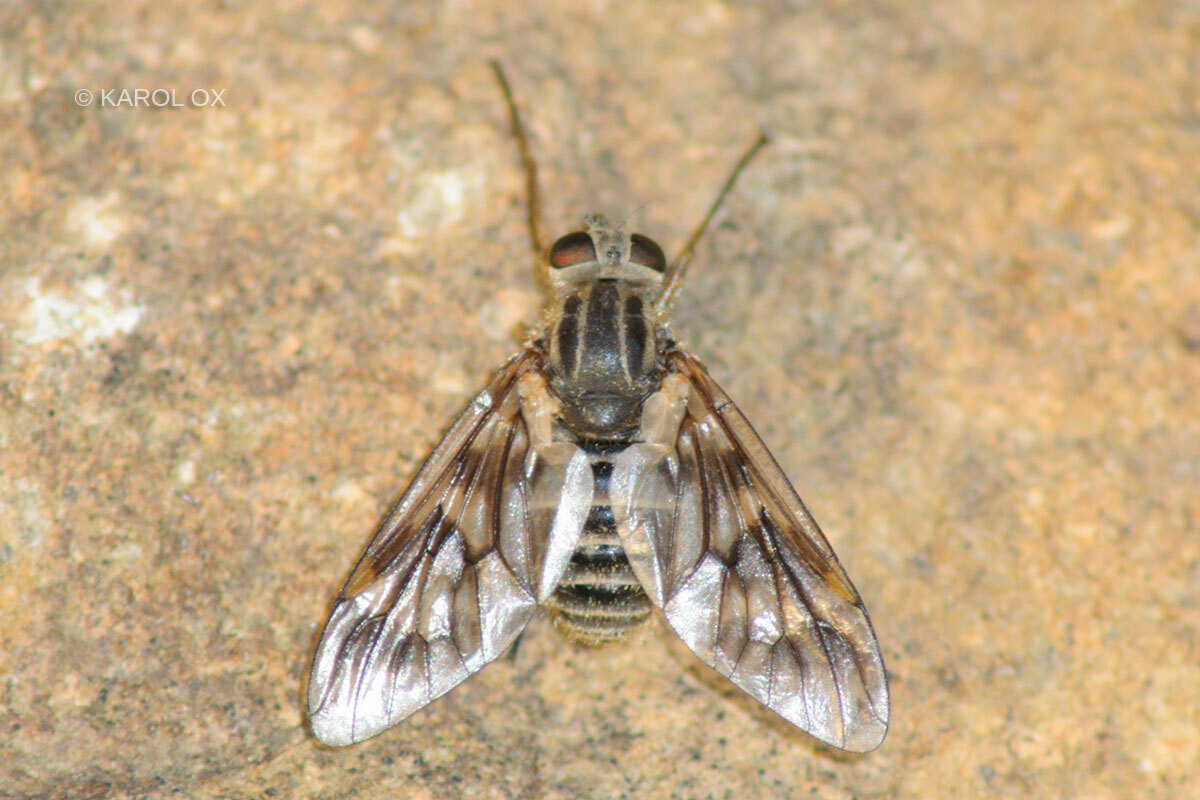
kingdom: Animalia
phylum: Arthropoda
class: Insecta
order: Diptera
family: Athericidae
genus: Atherix
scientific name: Atherix ibis
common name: Yellow-legged water-snipefly
